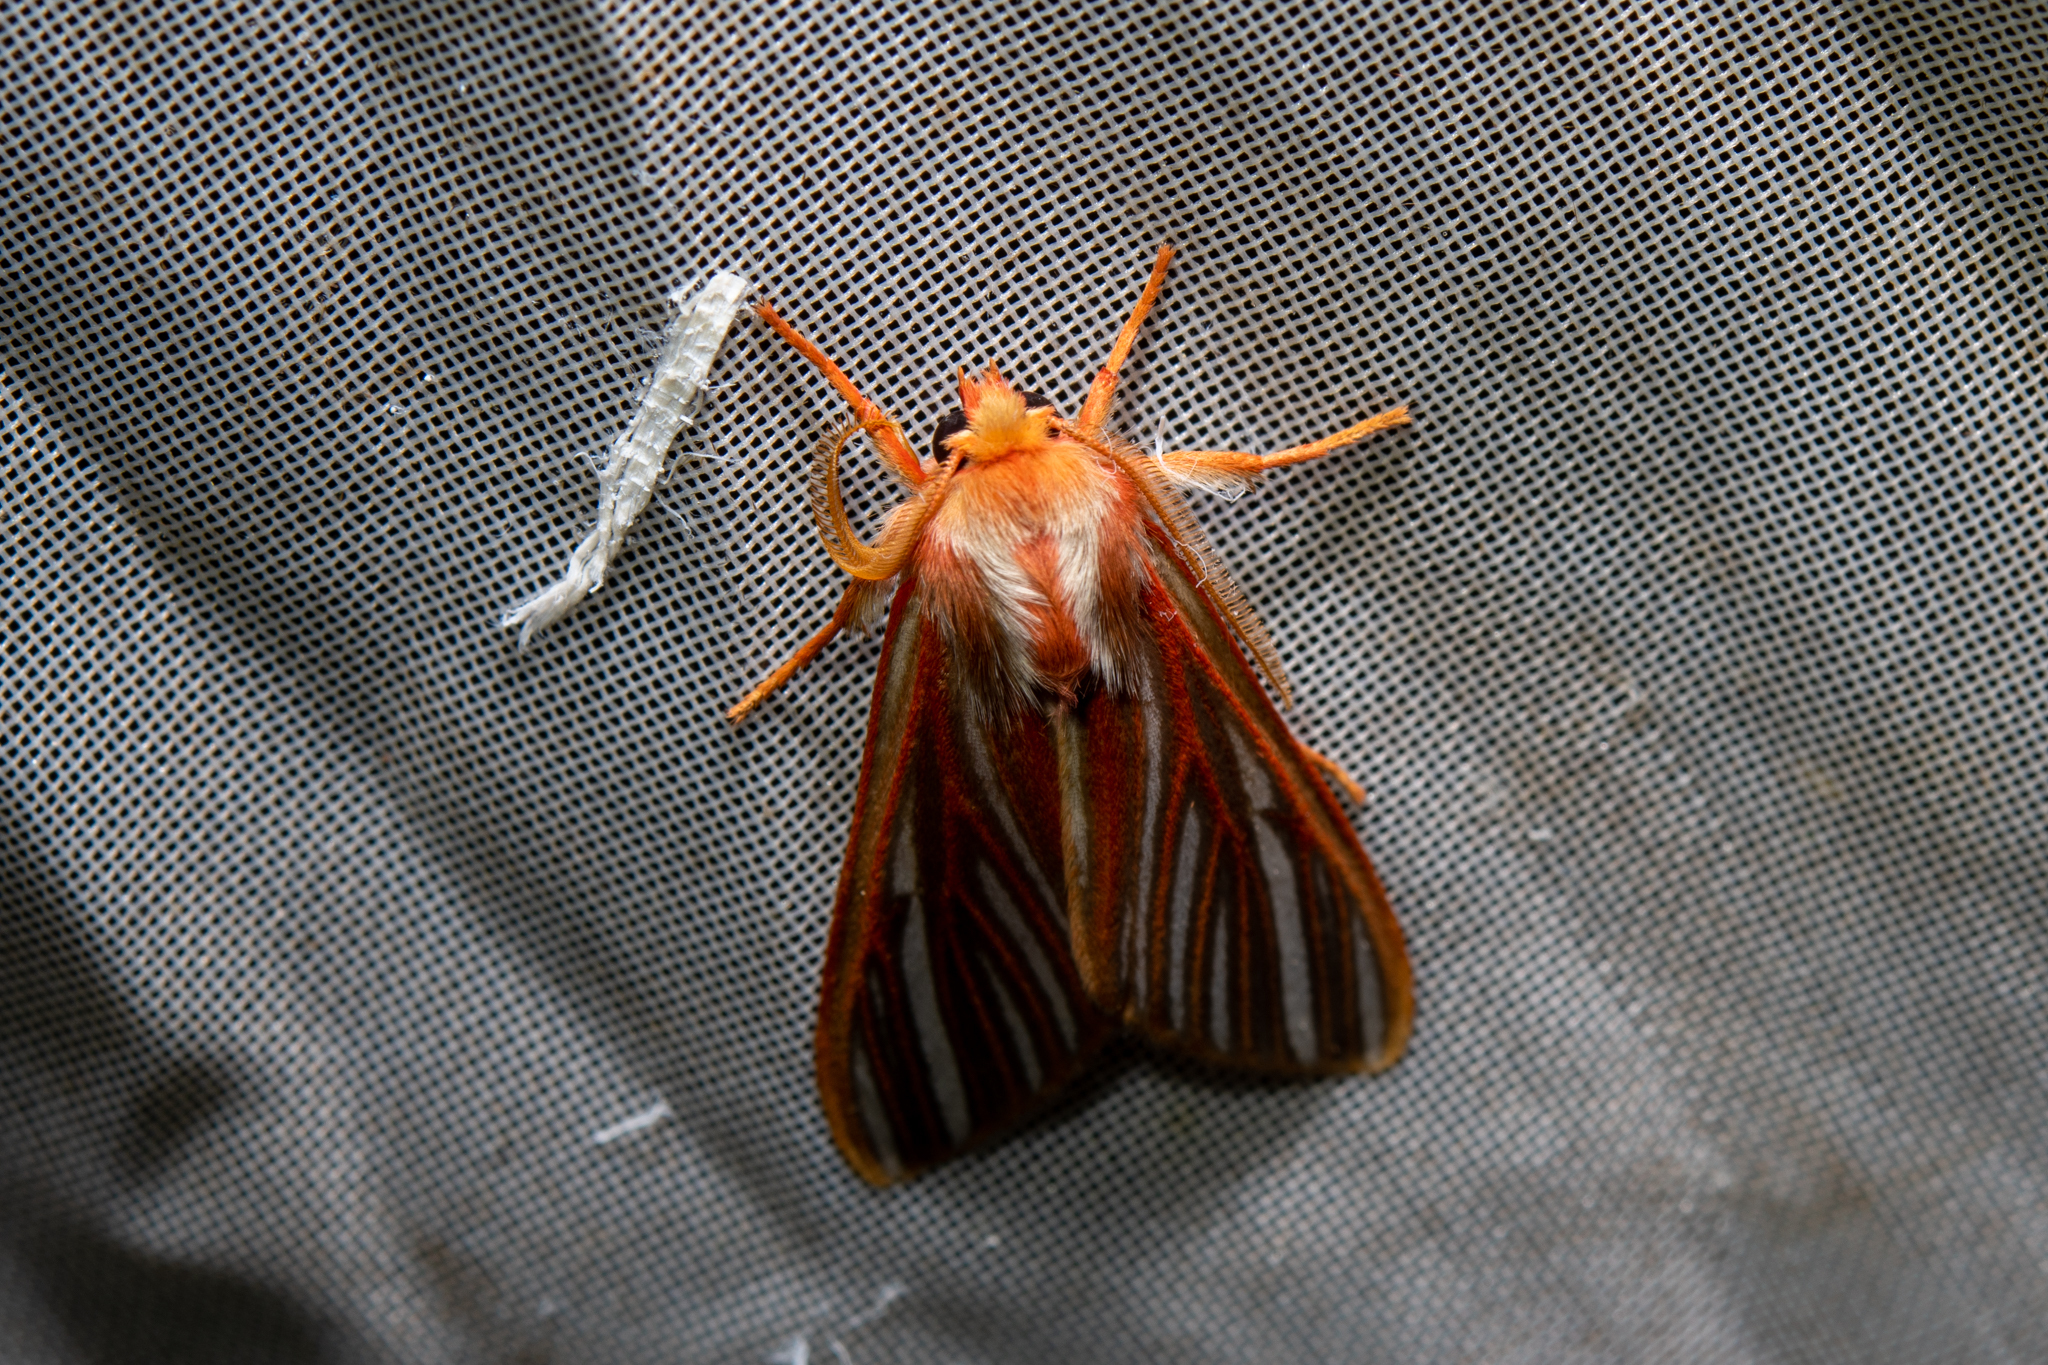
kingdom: Animalia
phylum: Arthropoda
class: Insecta
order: Lepidoptera
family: Arctiidae
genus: Pseudohemihyalea
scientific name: Pseudohemihyalea syracosia
